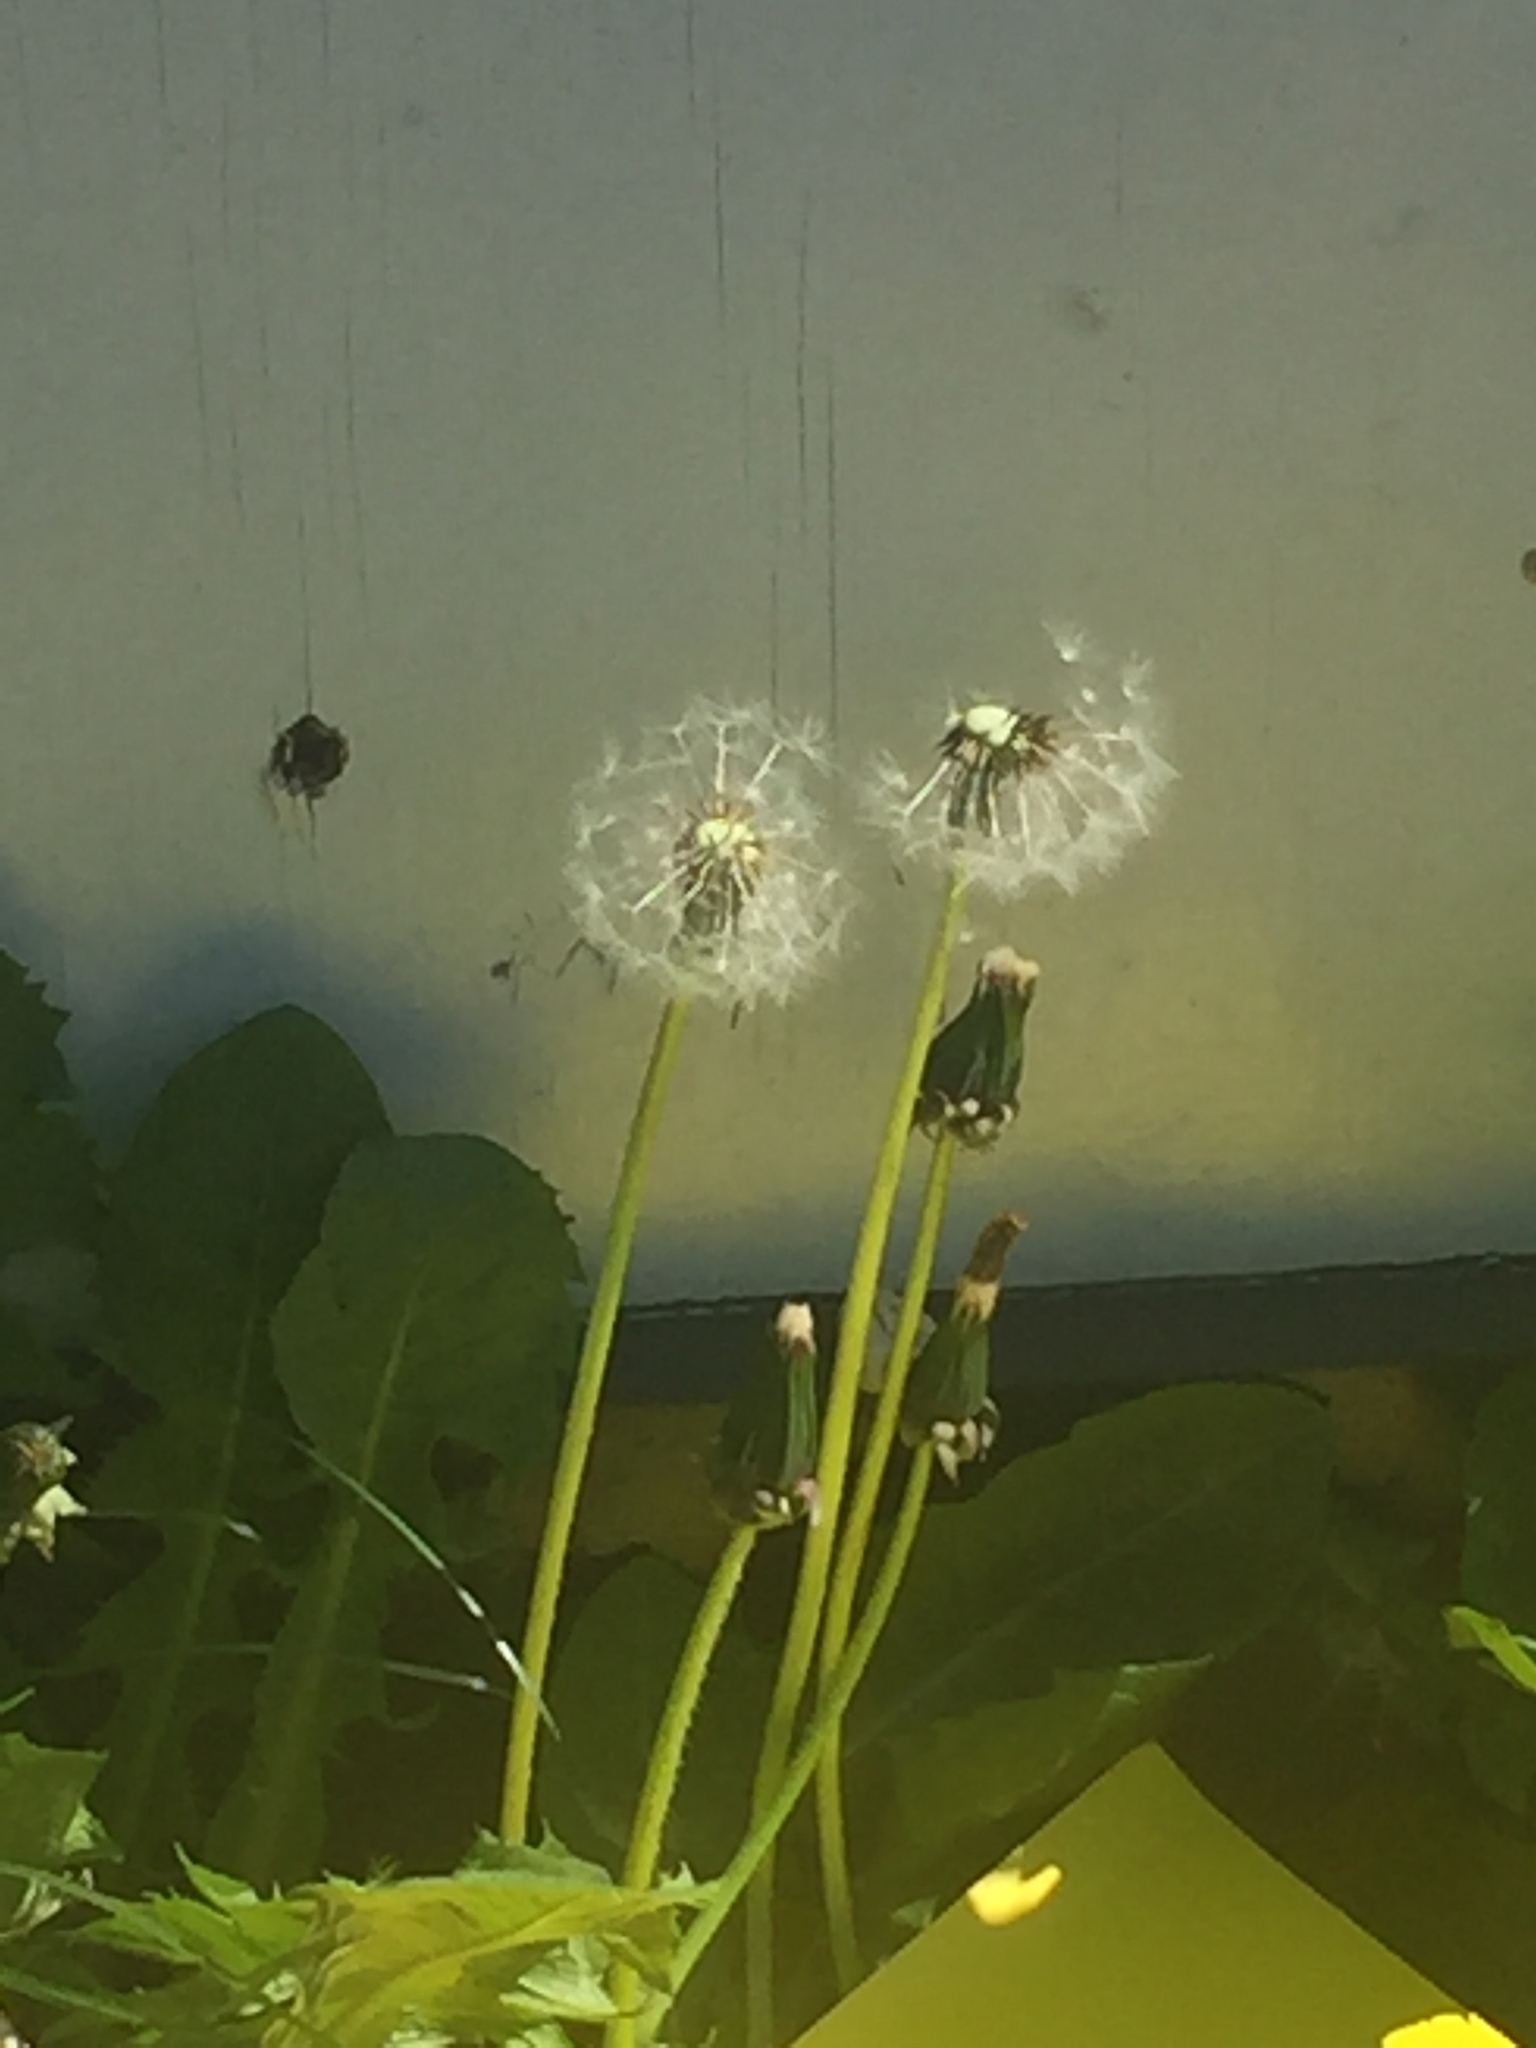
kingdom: Plantae
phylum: Tracheophyta
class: Magnoliopsida
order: Asterales
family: Asteraceae
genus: Taraxacum
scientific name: Taraxacum officinale
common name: Common dandelion
